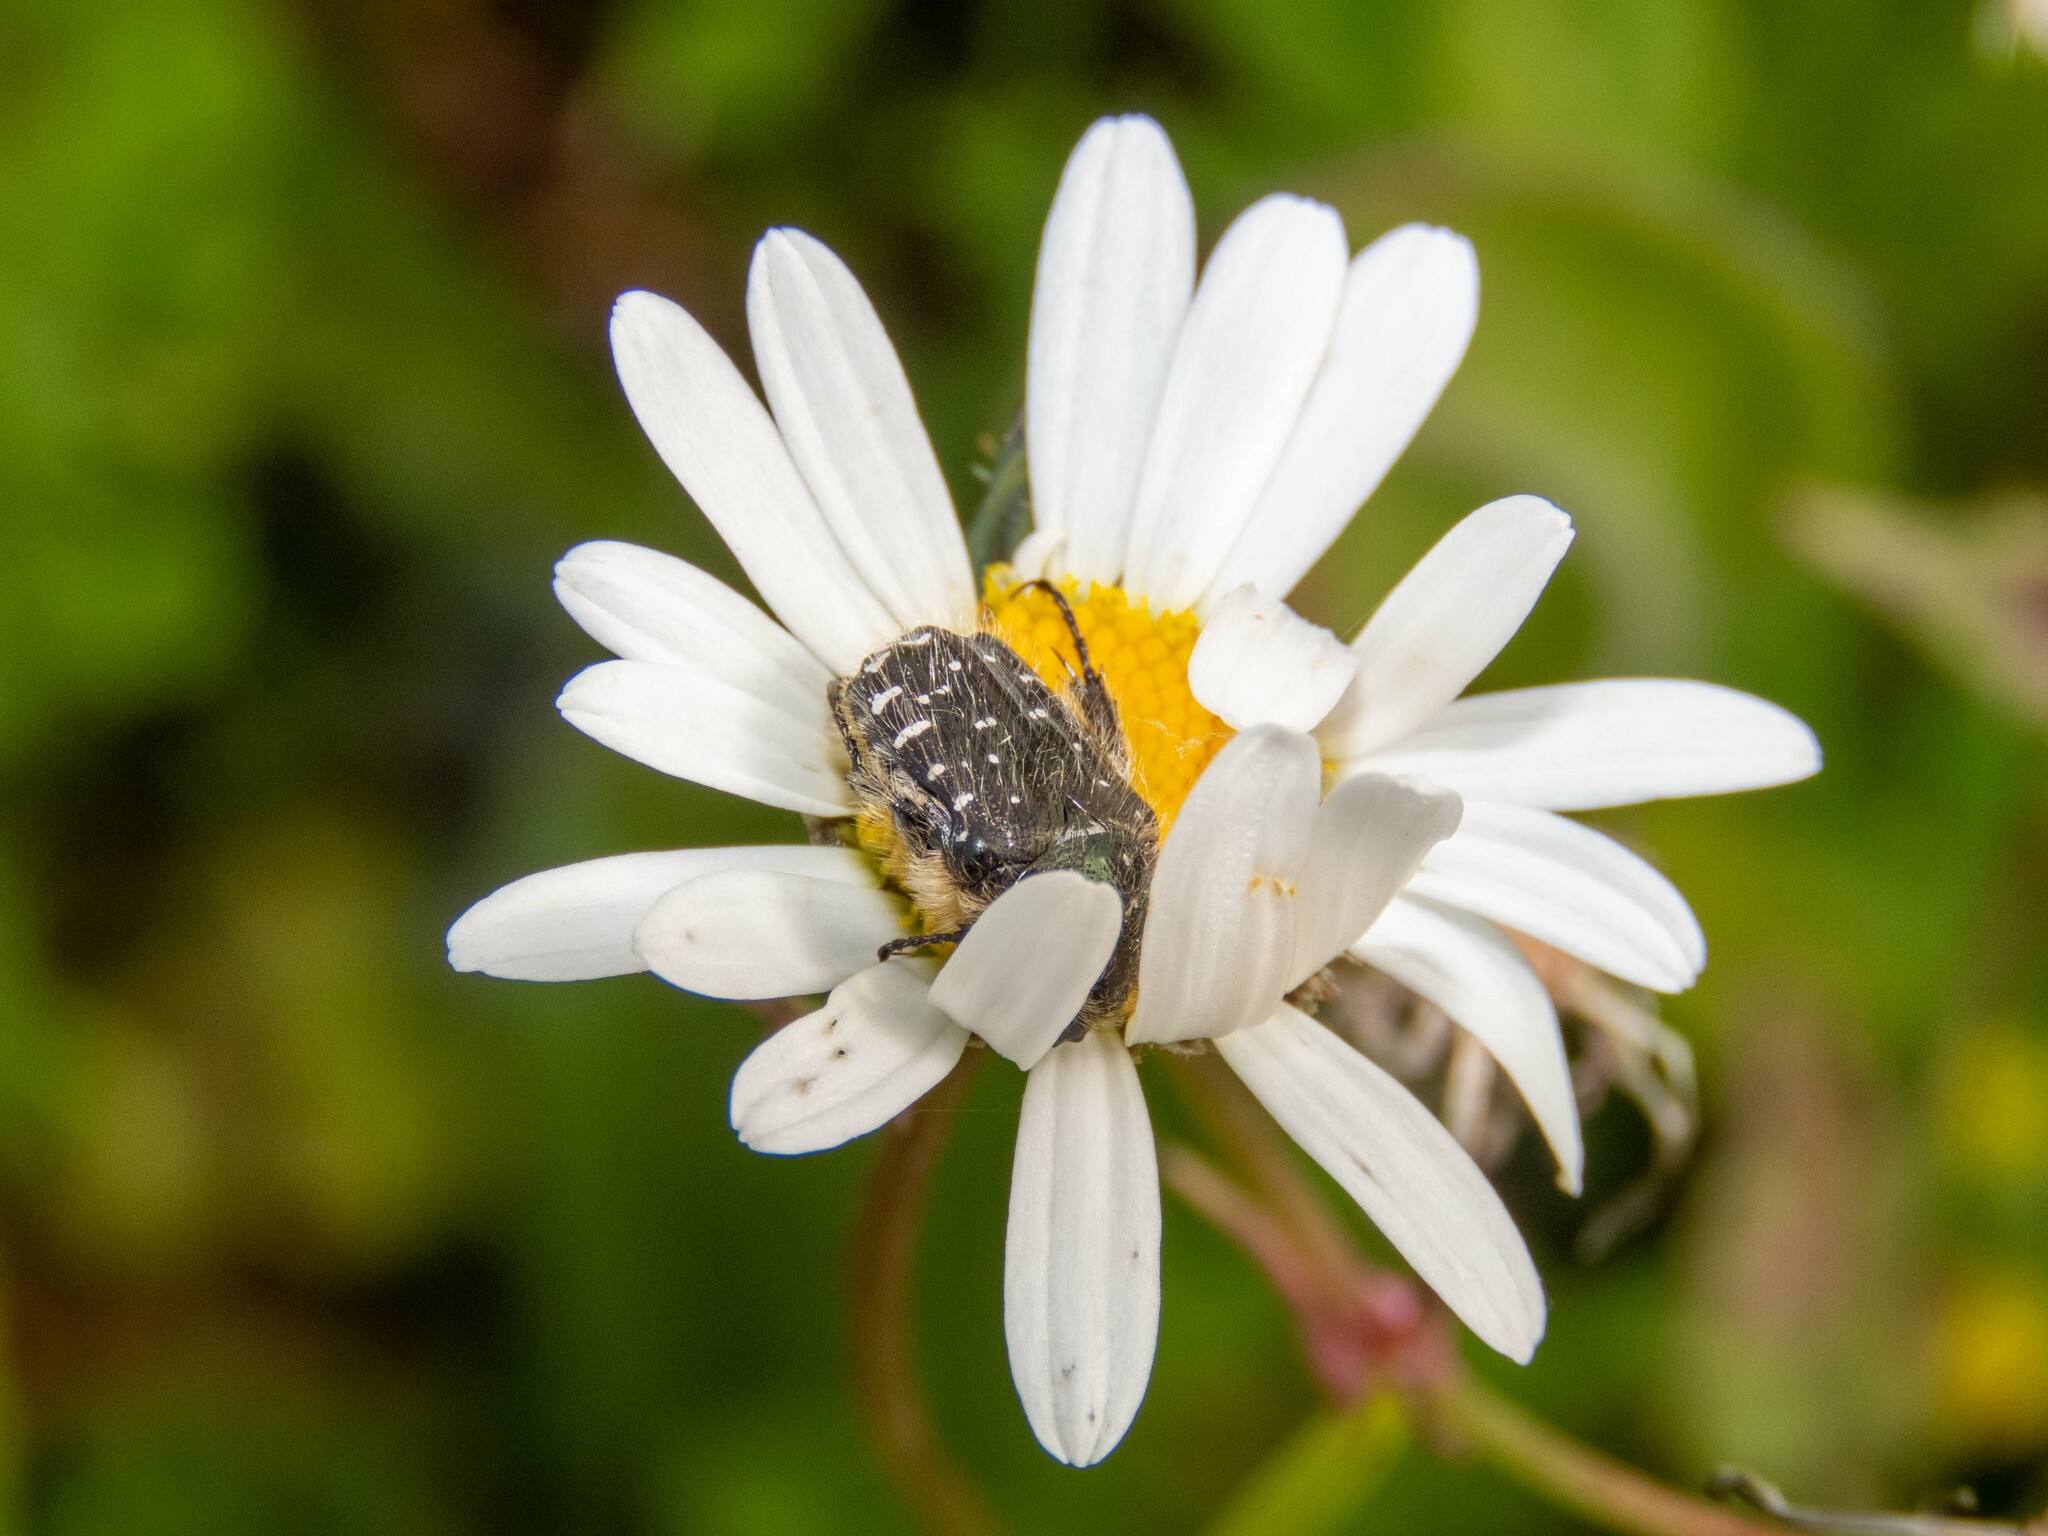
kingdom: Animalia
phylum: Arthropoda
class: Insecta
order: Coleoptera
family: Scarabaeidae
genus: Oxythyrea
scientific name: Oxythyrea funesta
